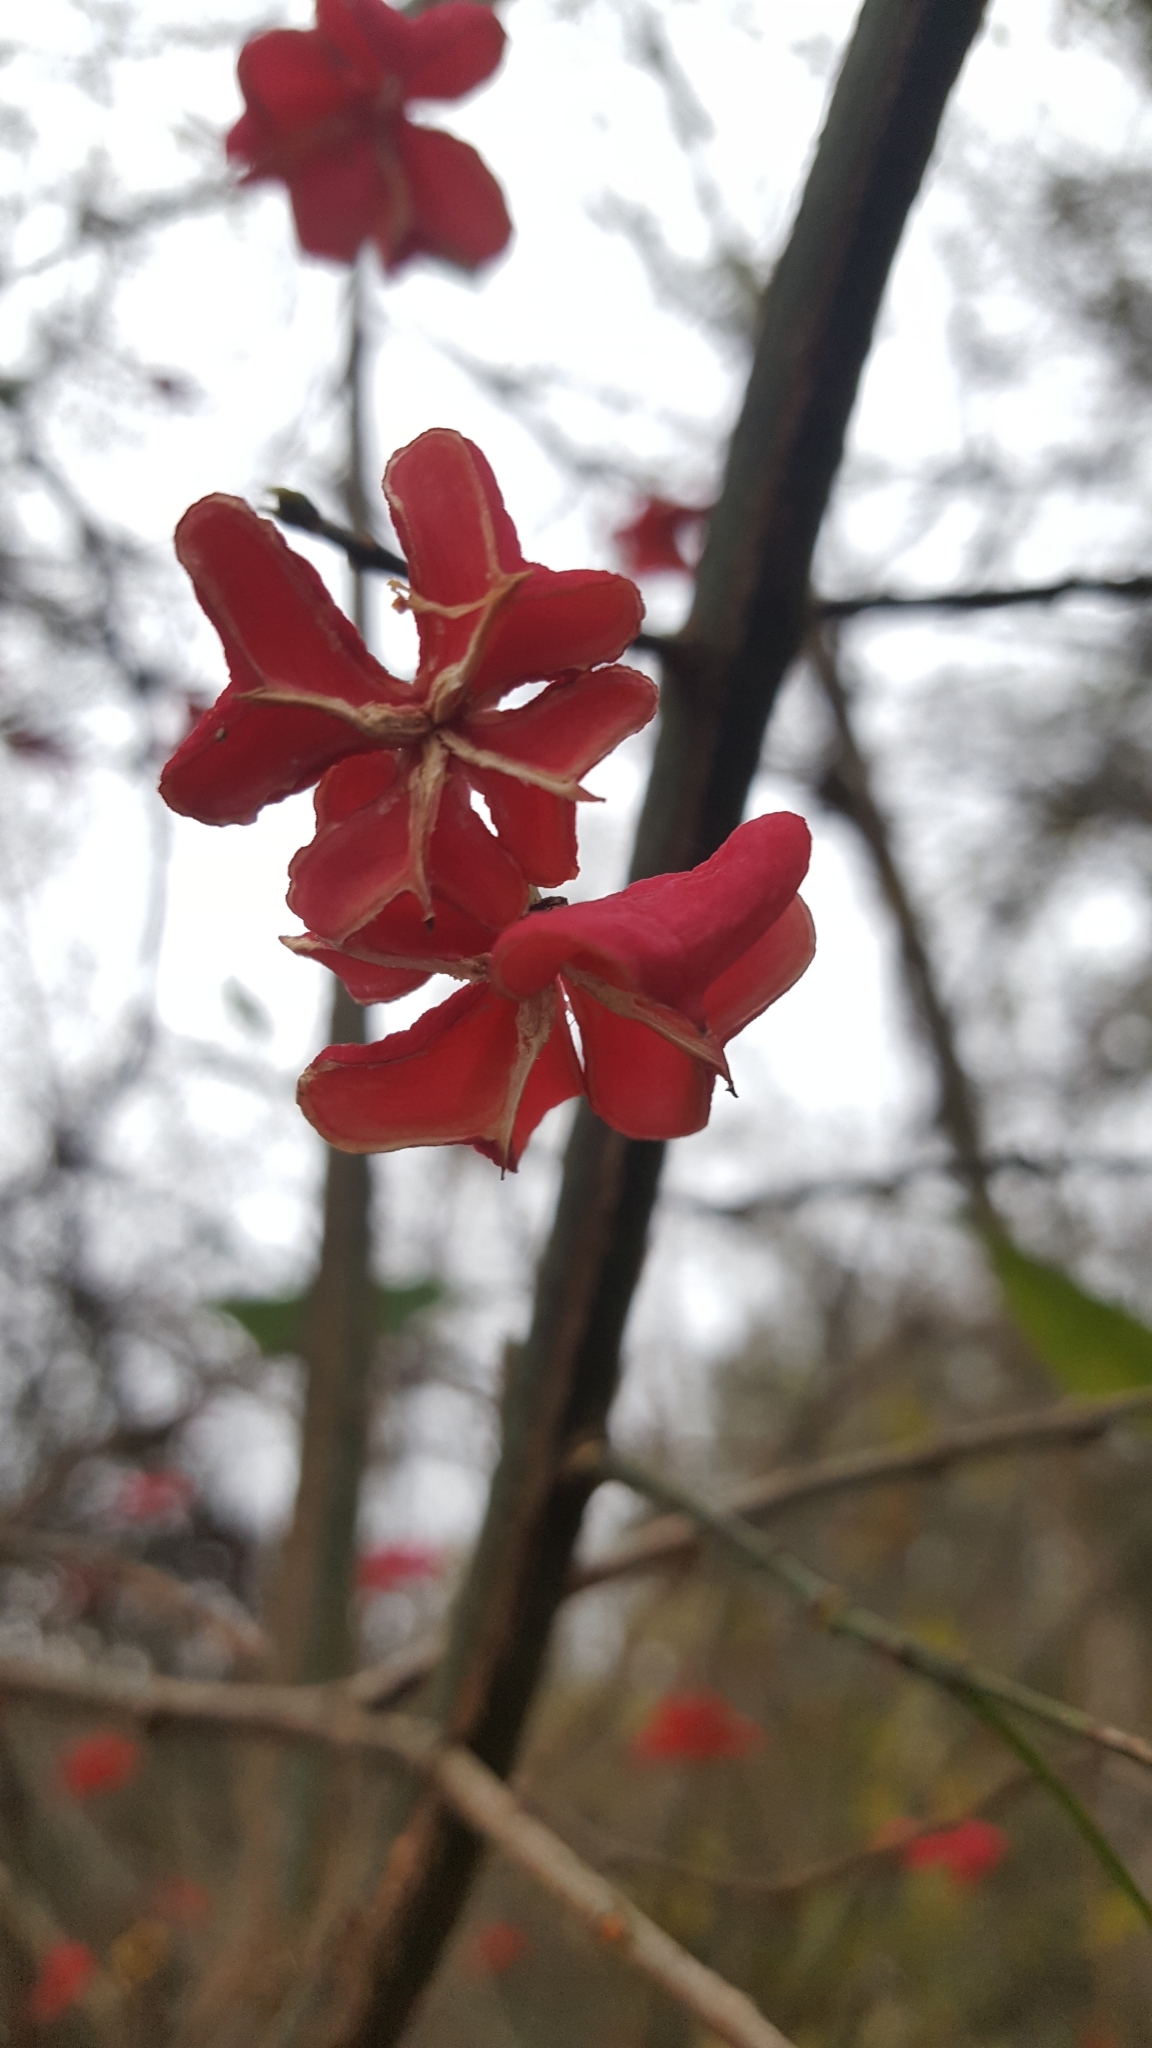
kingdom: Plantae
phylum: Tracheophyta
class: Magnoliopsida
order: Celastrales
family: Celastraceae
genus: Euonymus
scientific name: Euonymus europaeus
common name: Spindle
